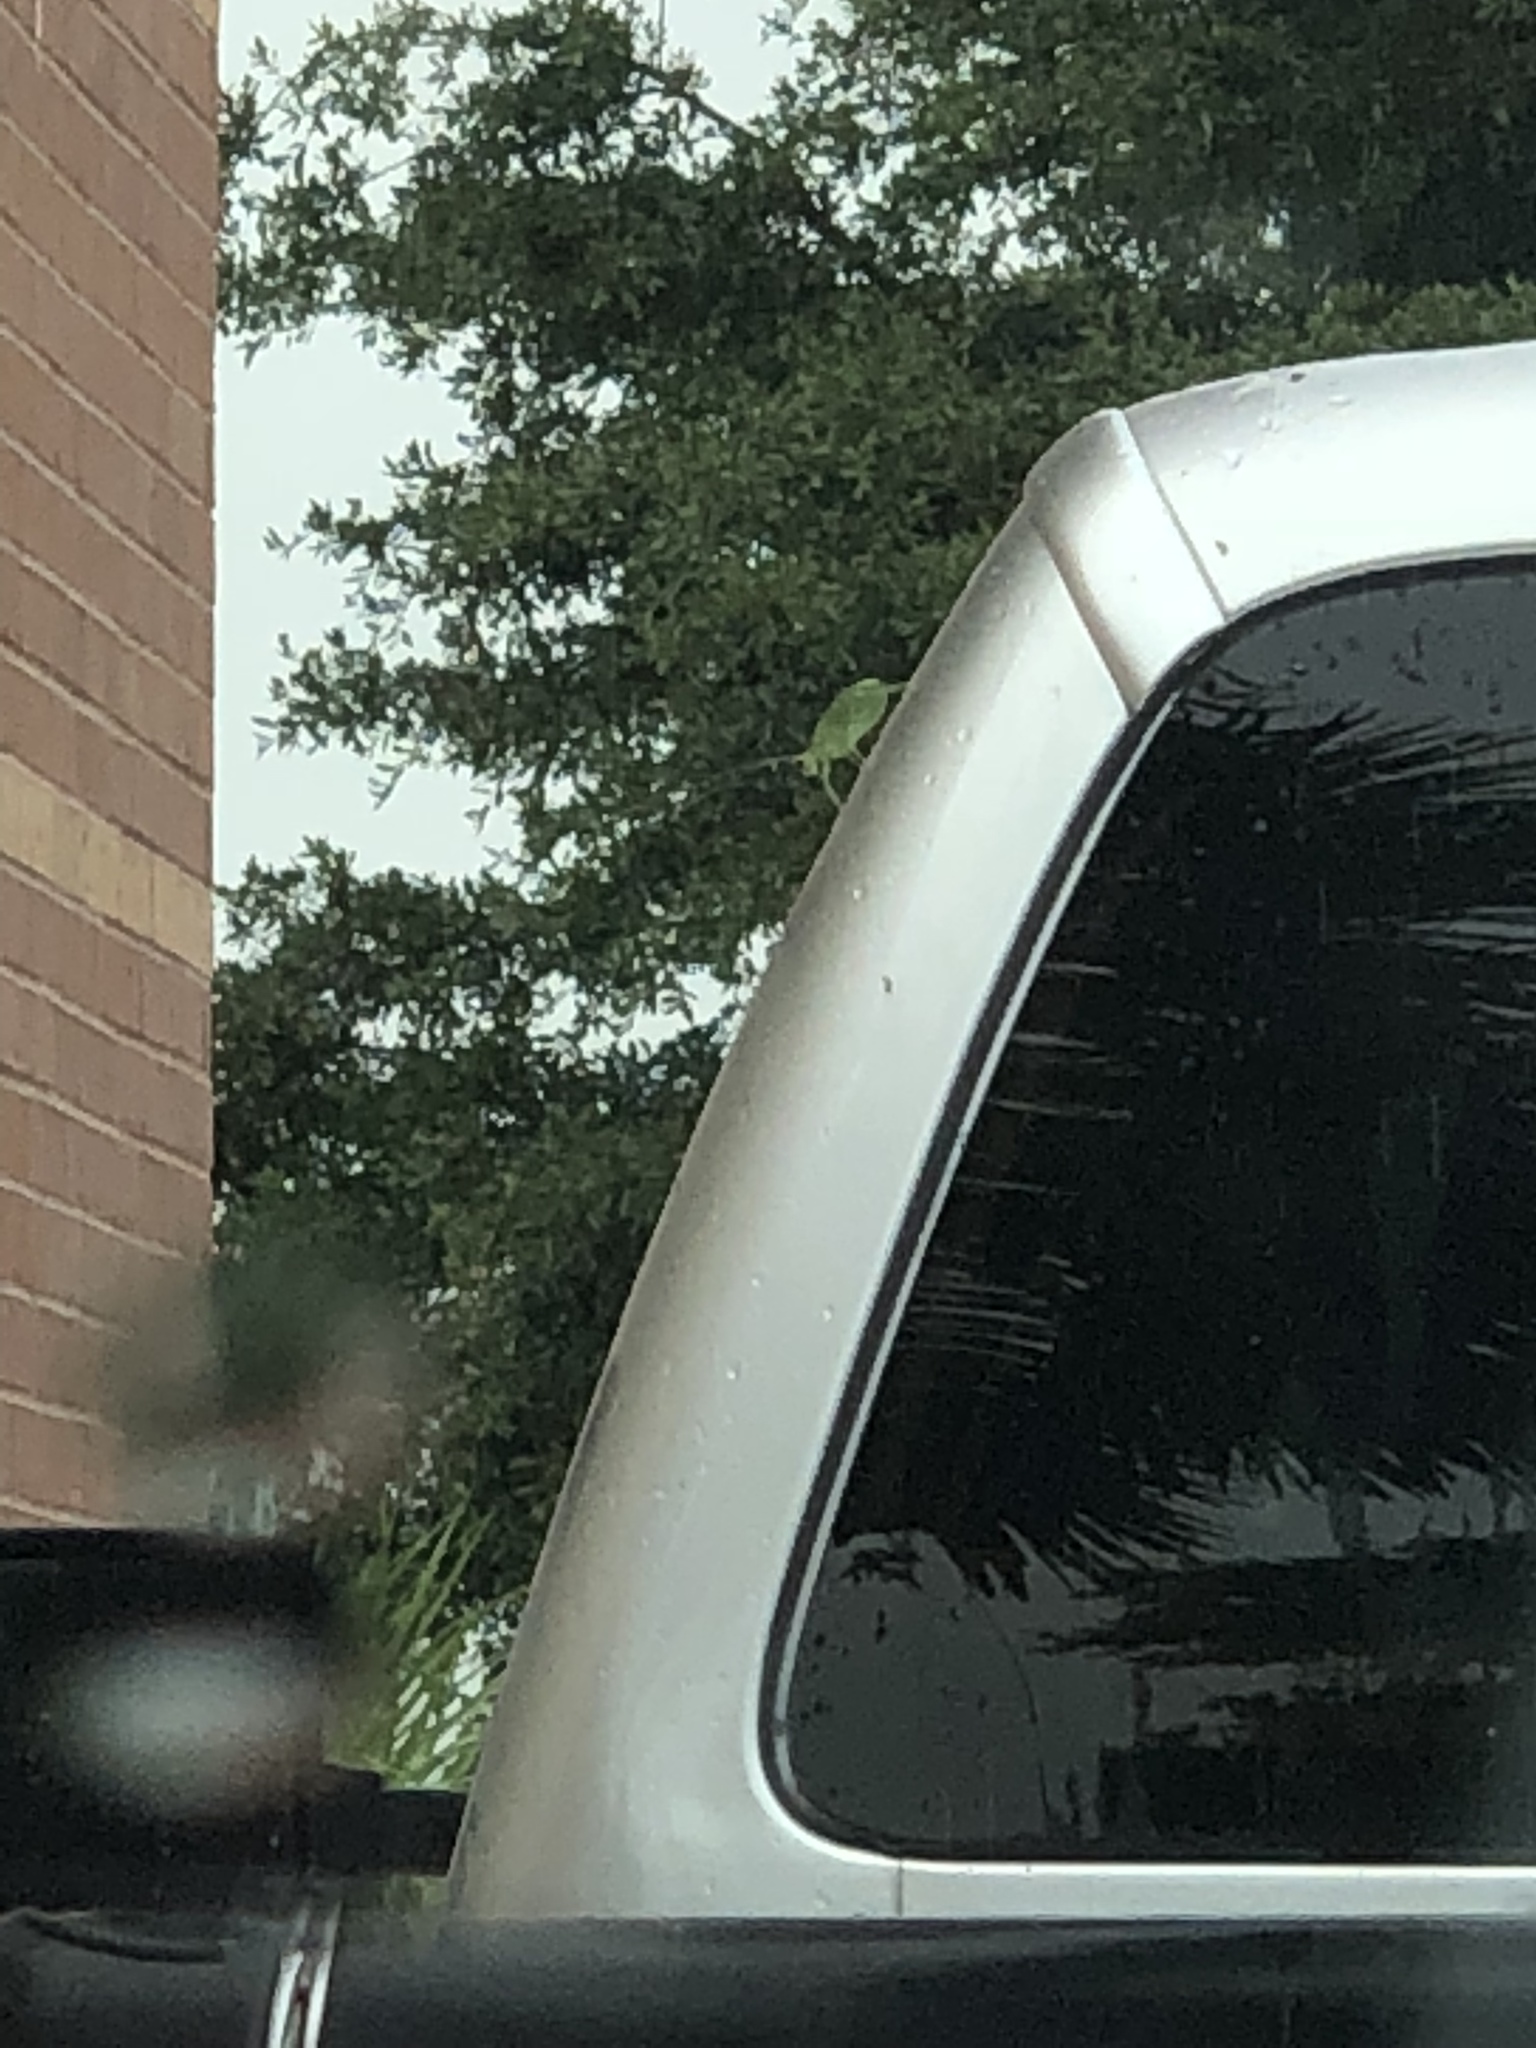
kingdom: Animalia
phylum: Arthropoda
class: Insecta
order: Orthoptera
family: Tettigoniidae
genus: Paracyrtophyllus
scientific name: Paracyrtophyllus robustus
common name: Central texas leaf katydid
